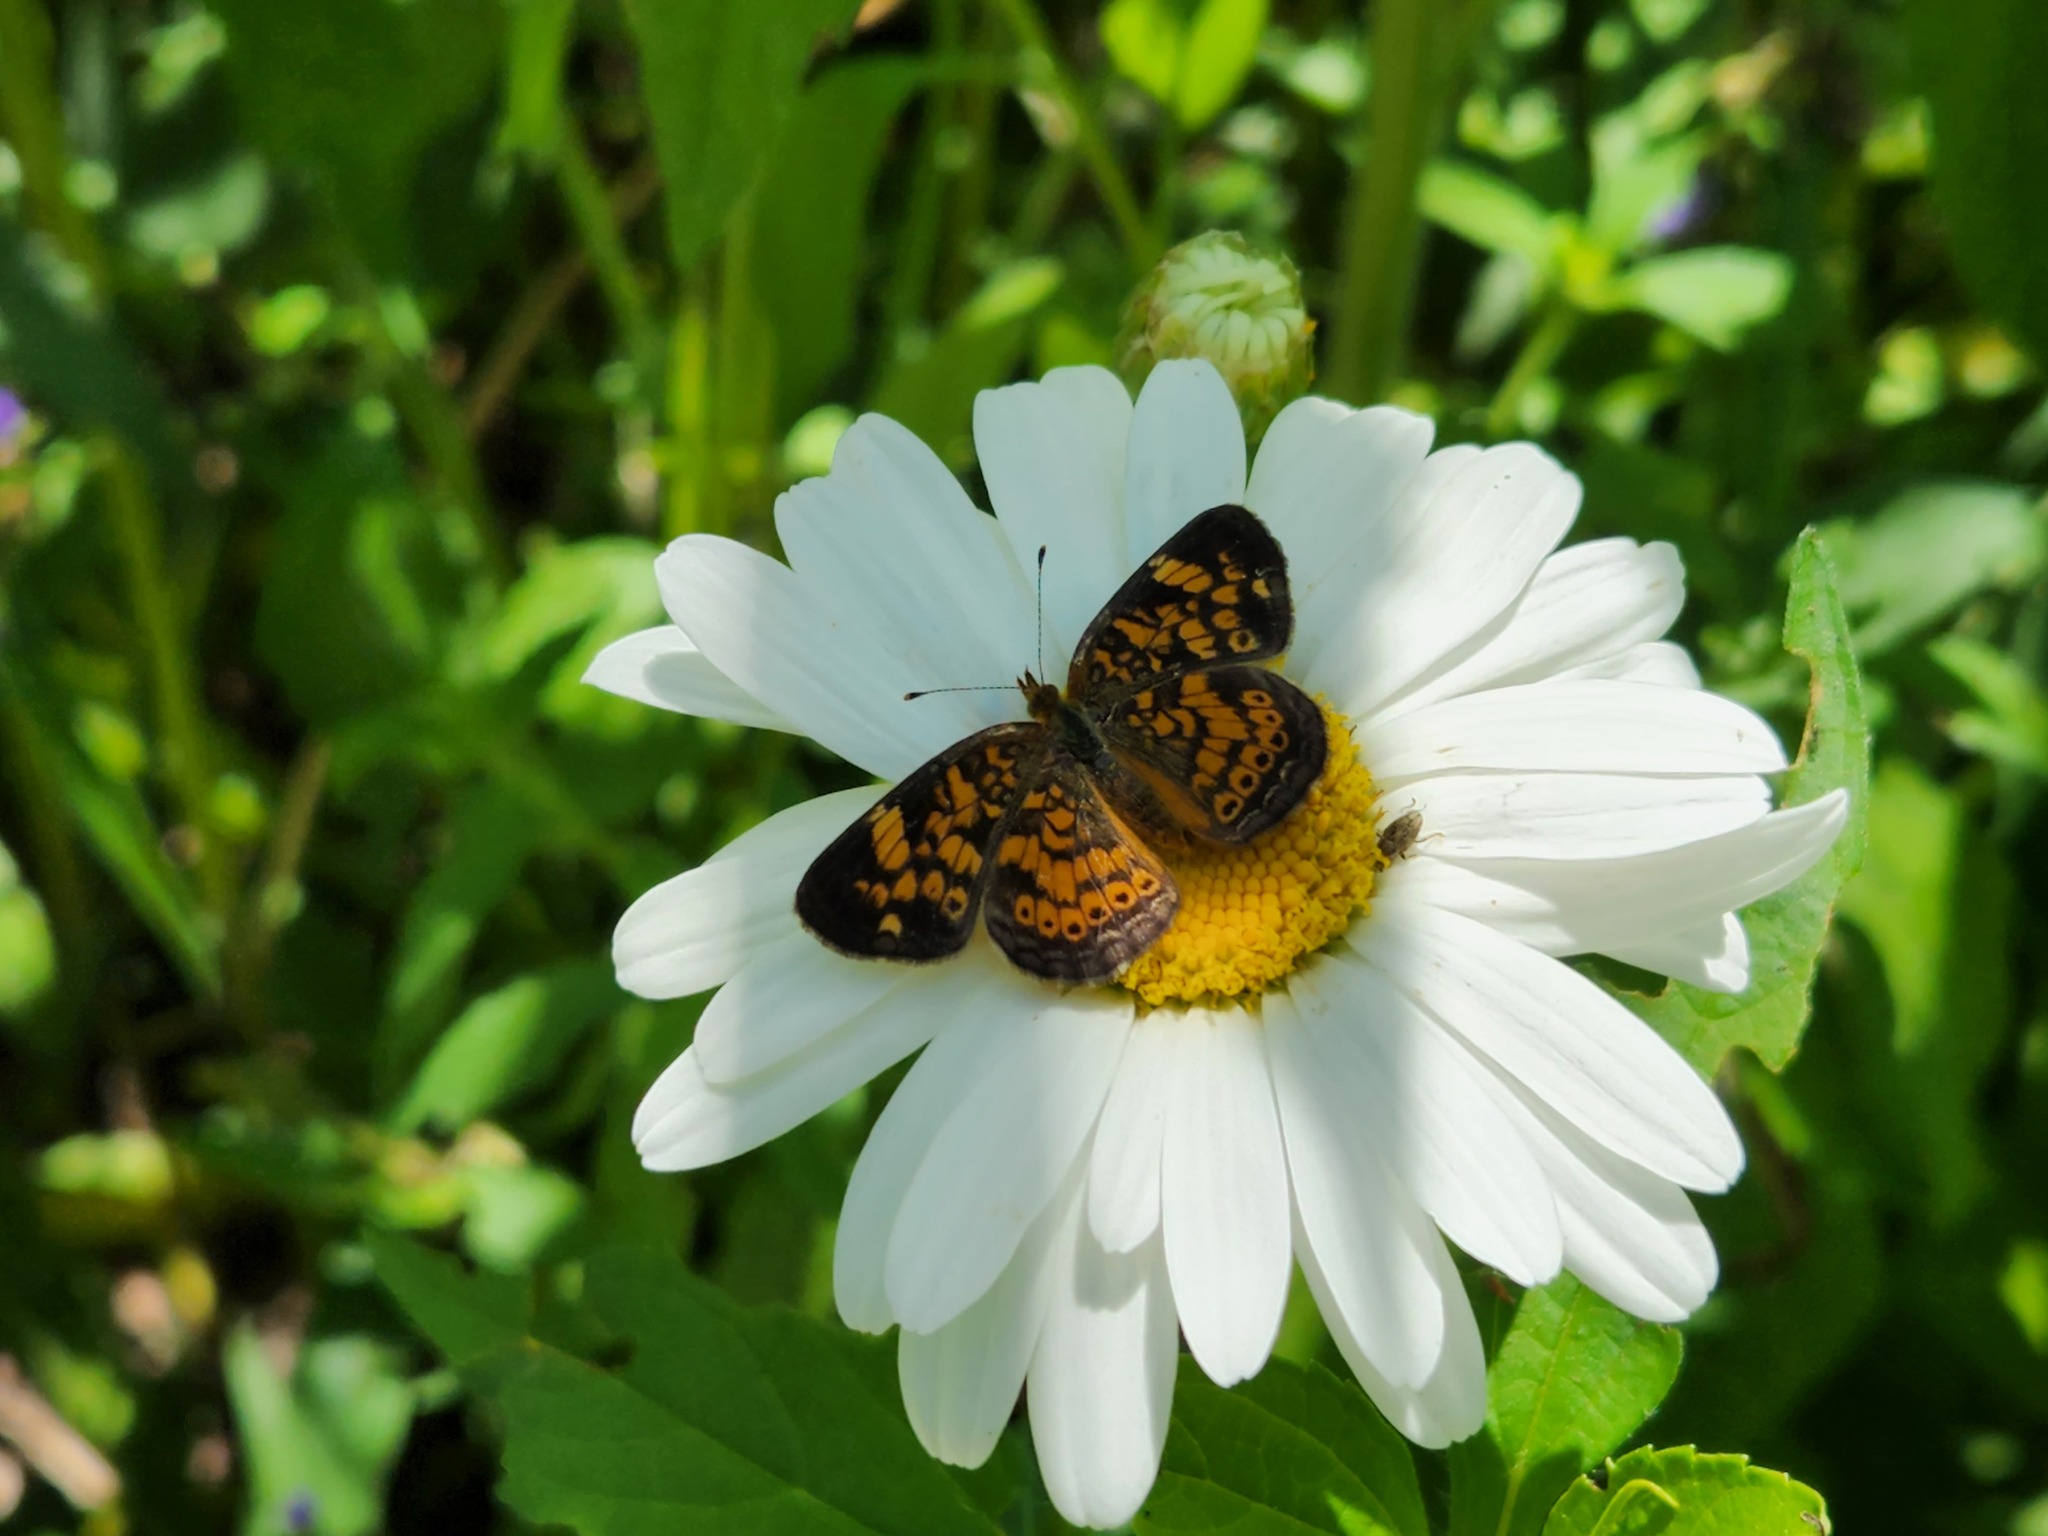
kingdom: Animalia
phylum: Arthropoda
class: Insecta
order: Lepidoptera
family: Nymphalidae
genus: Phyciodes
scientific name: Phyciodes tharos
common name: Pearl crescent
